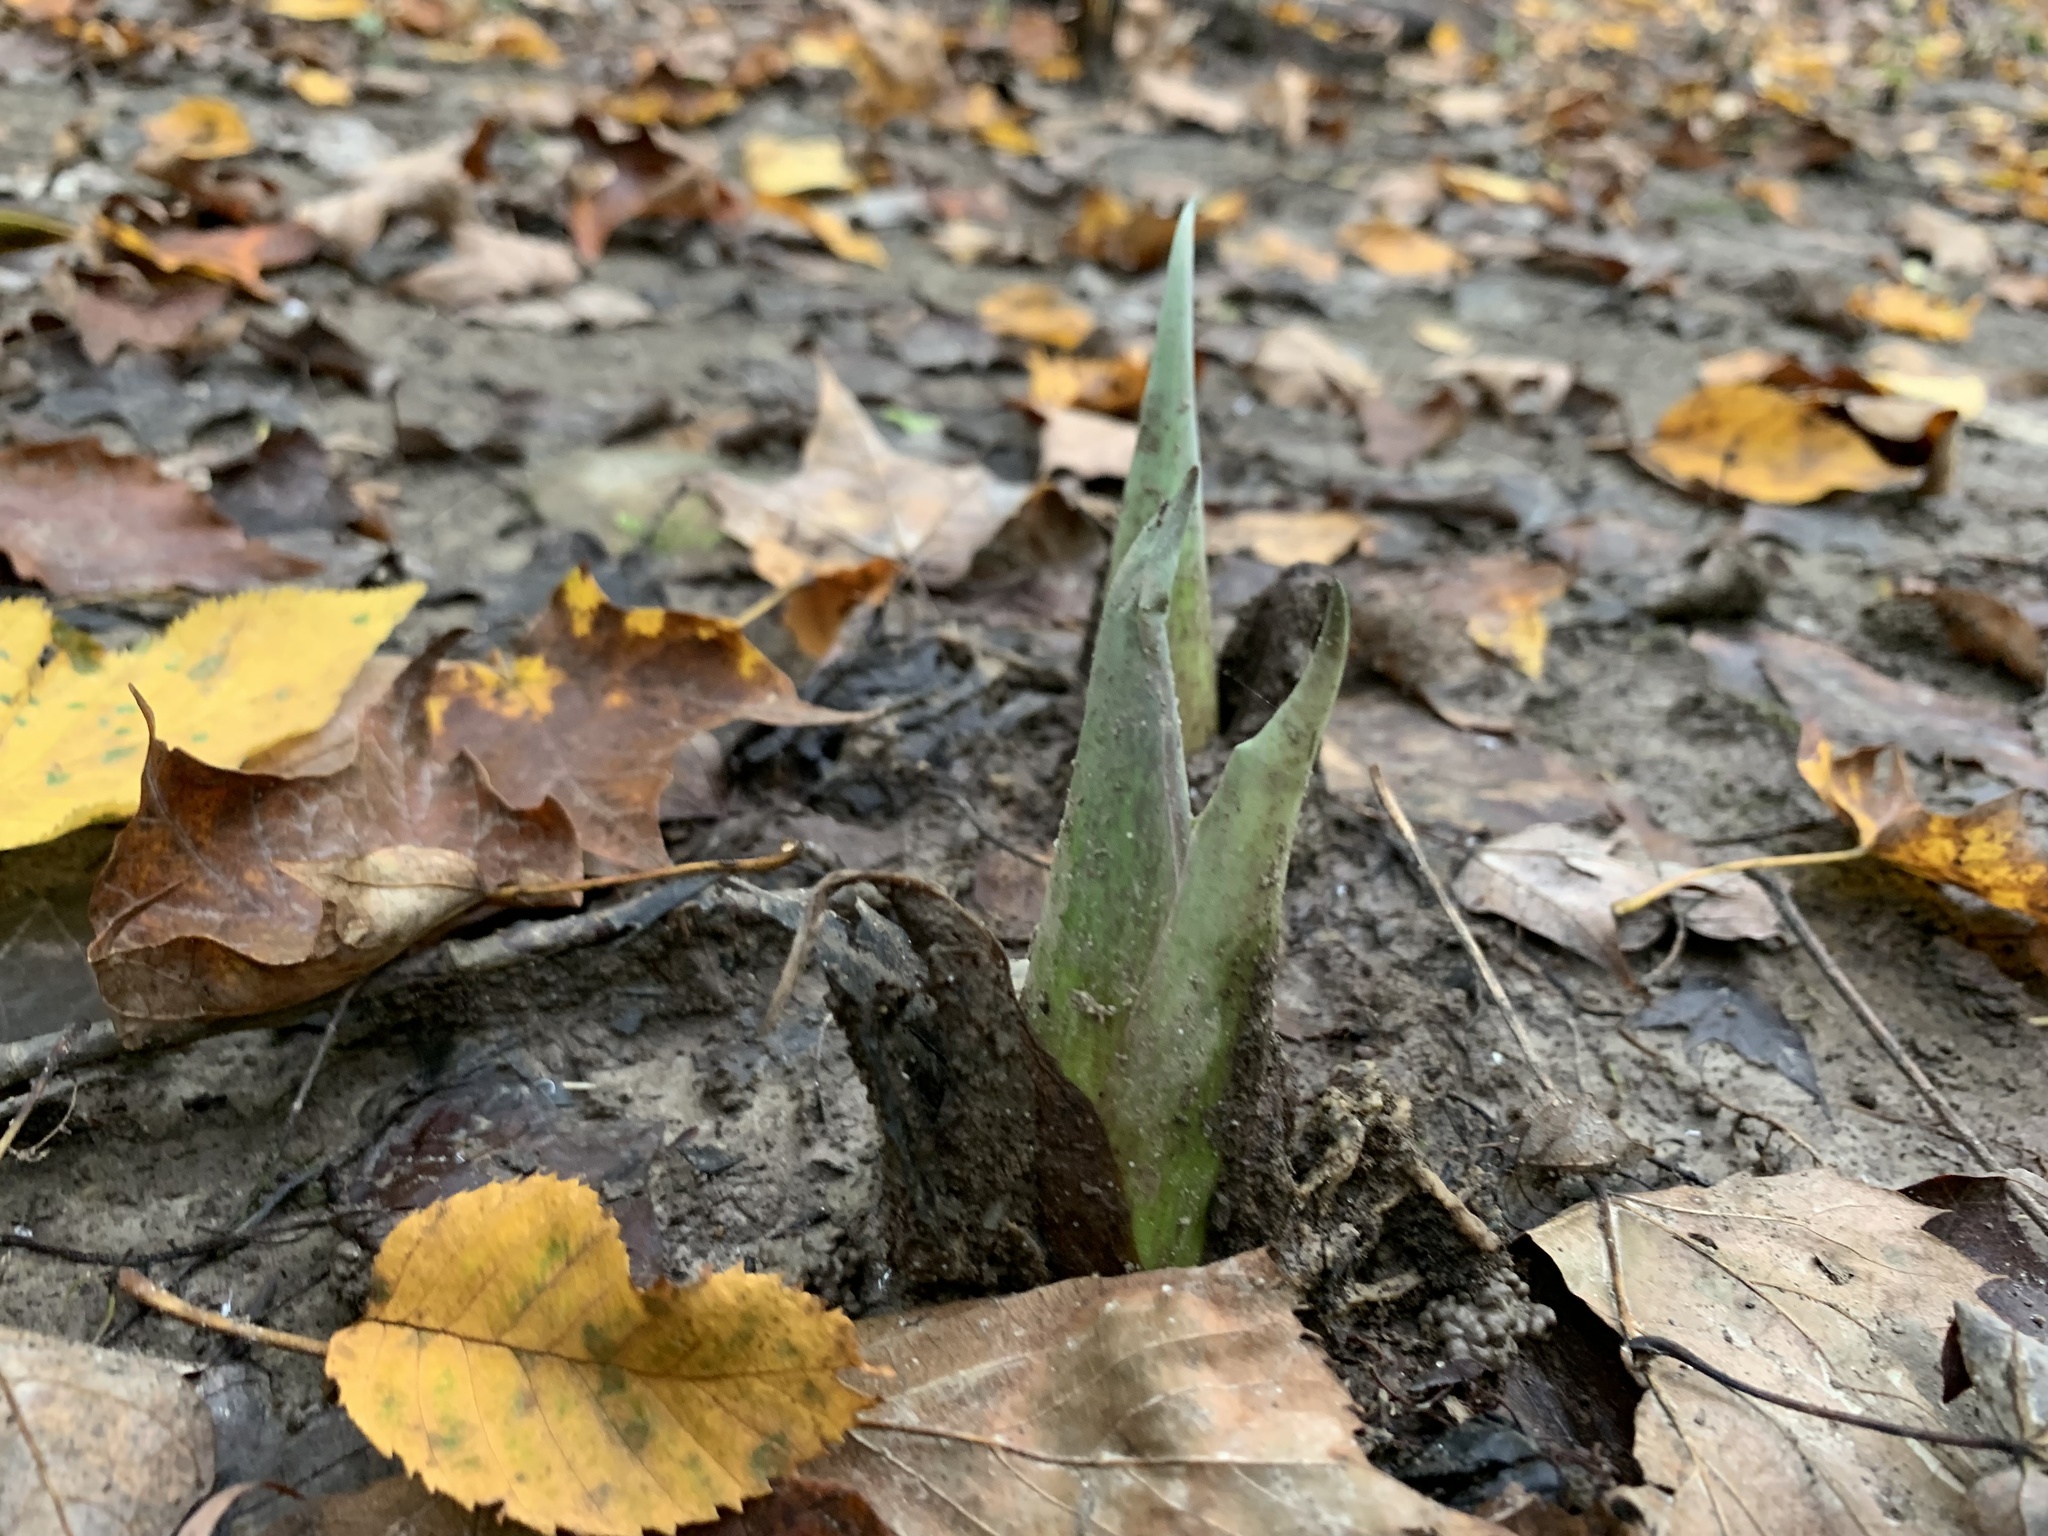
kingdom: Plantae
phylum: Tracheophyta
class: Liliopsida
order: Alismatales
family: Araceae
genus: Symplocarpus
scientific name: Symplocarpus foetidus
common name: Eastern skunk cabbage
